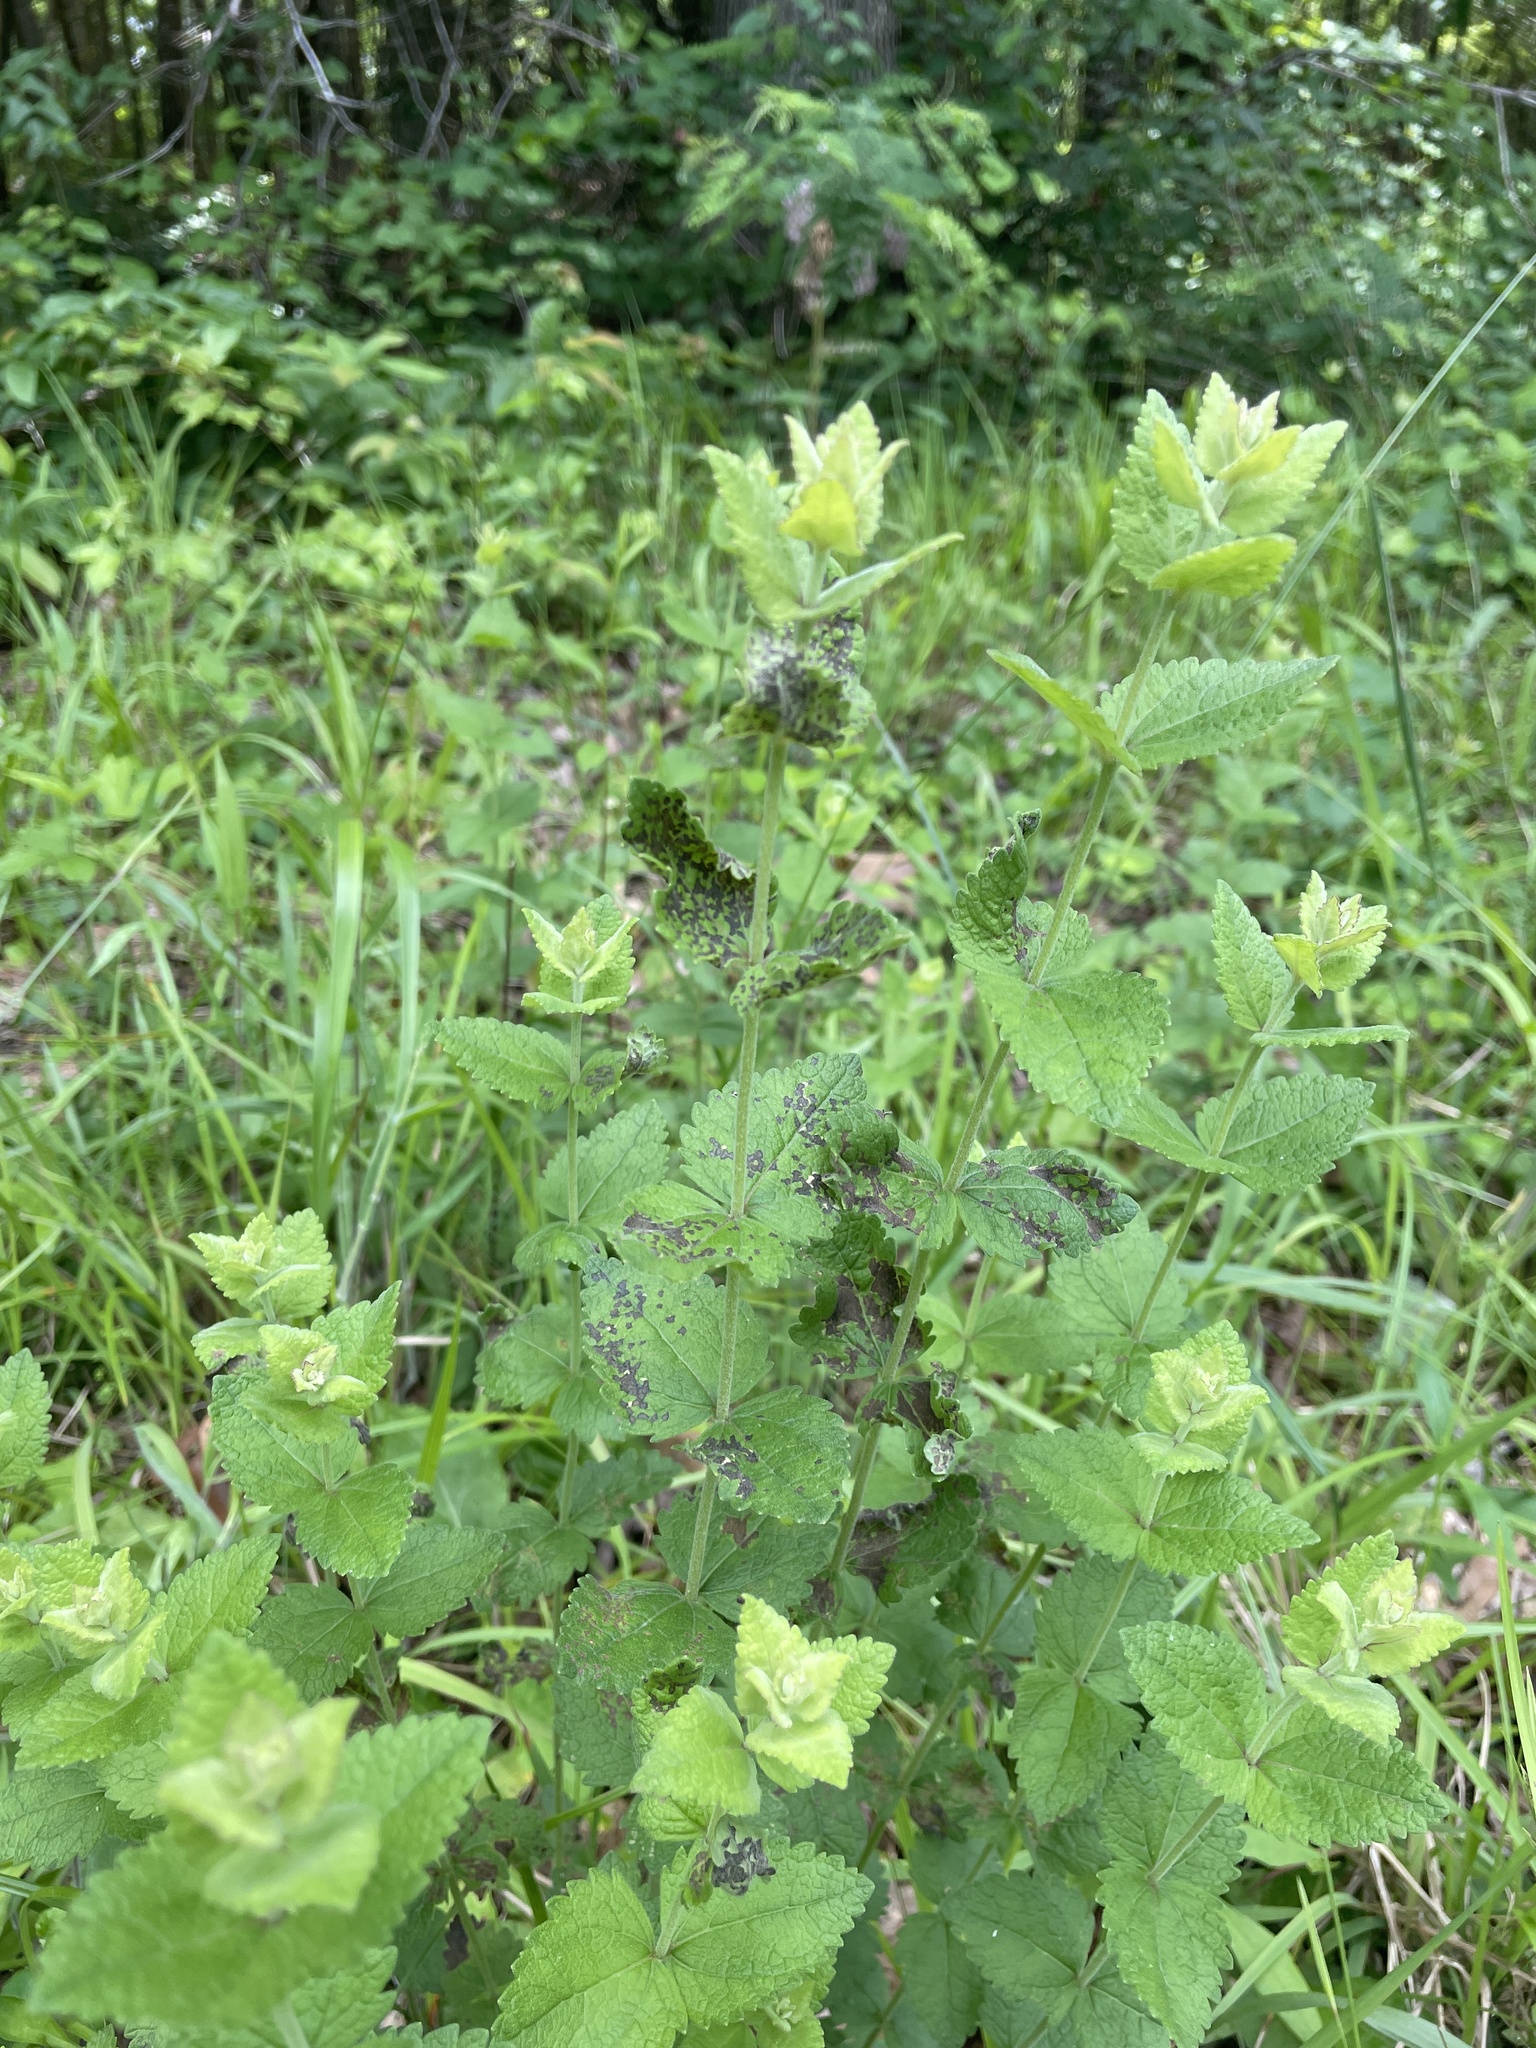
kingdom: Plantae
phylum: Tracheophyta
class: Magnoliopsida
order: Asterales
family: Asteraceae
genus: Eupatorium
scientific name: Eupatorium rotundifolium
